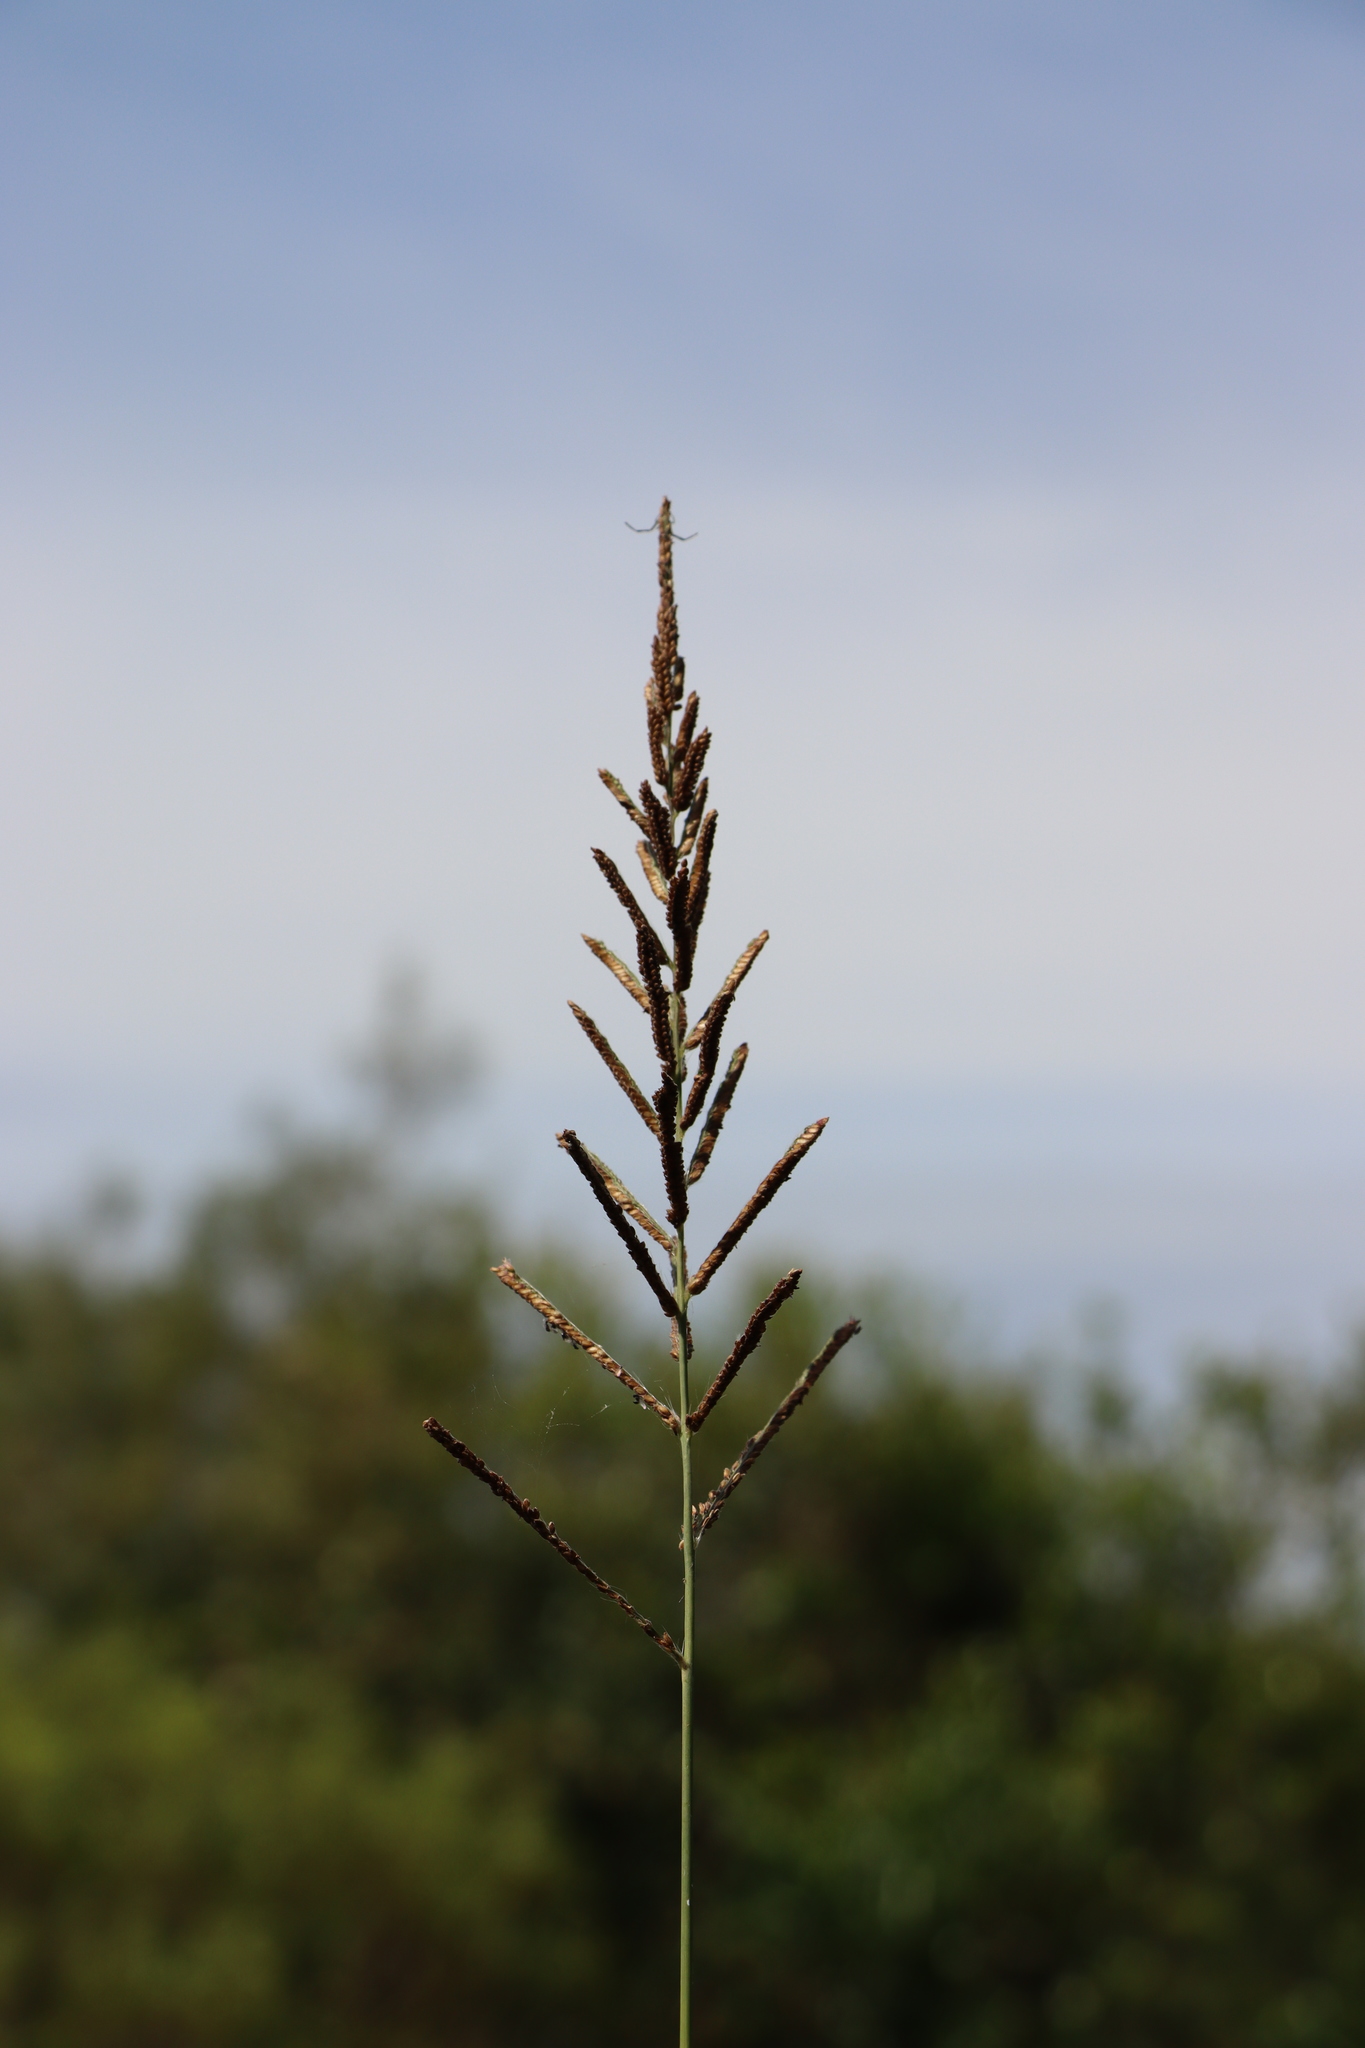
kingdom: Plantae
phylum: Tracheophyta
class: Liliopsida
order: Poales
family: Poaceae
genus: Paspalum
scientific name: Paspalum quadrifarium
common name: Tussock paspalum
